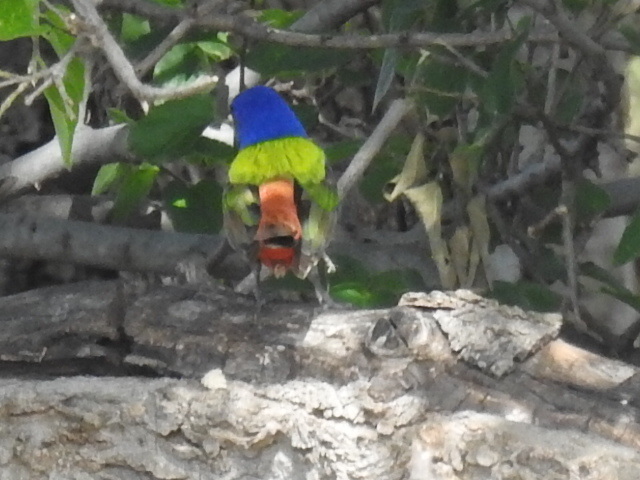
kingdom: Animalia
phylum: Chordata
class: Aves
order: Passeriformes
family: Cardinalidae
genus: Passerina
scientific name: Passerina ciris
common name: Painted bunting
